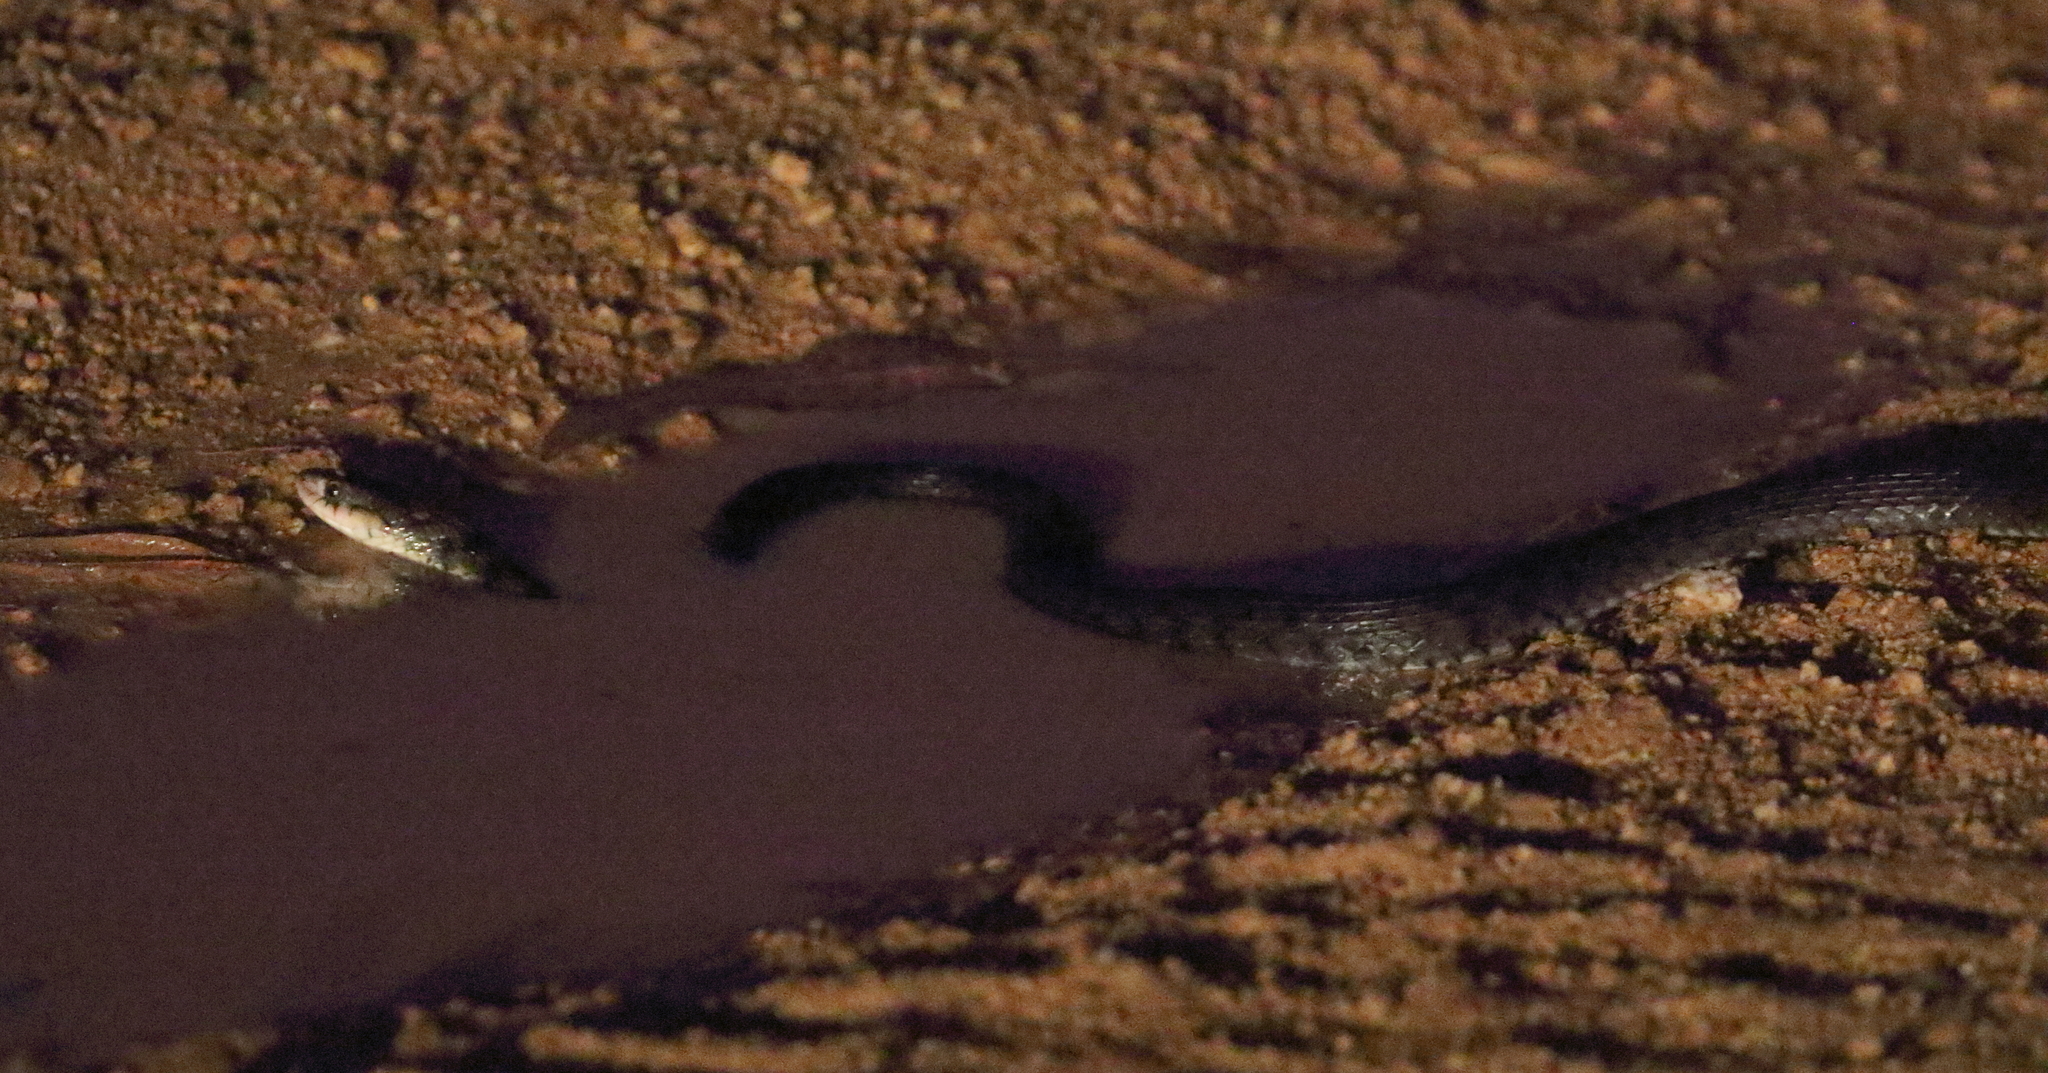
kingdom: Animalia
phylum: Chordata
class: Squamata
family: Colubridae
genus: Tropidonophis
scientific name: Tropidonophis mairii
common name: Common keelback
